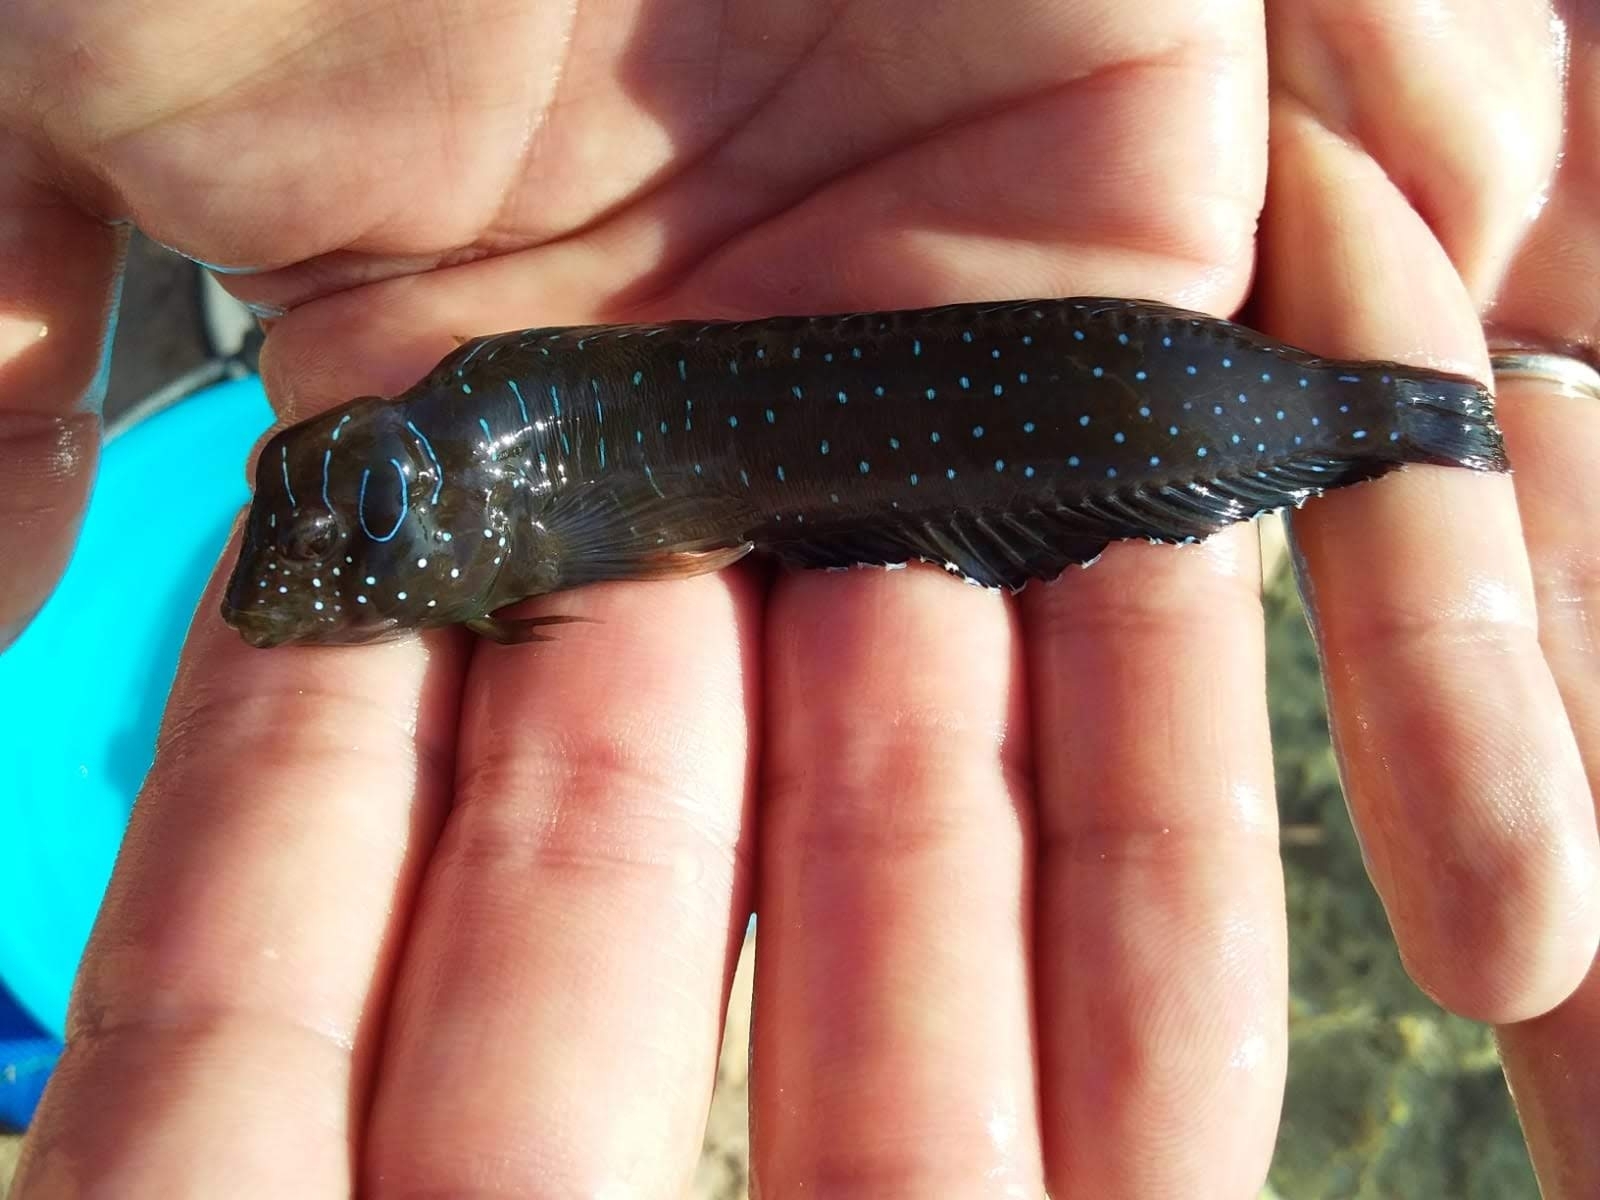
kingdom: Animalia
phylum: Chordata
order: Perciformes
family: Blenniidae
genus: Salaria
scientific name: Salaria pavo
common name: Peacock blenny
